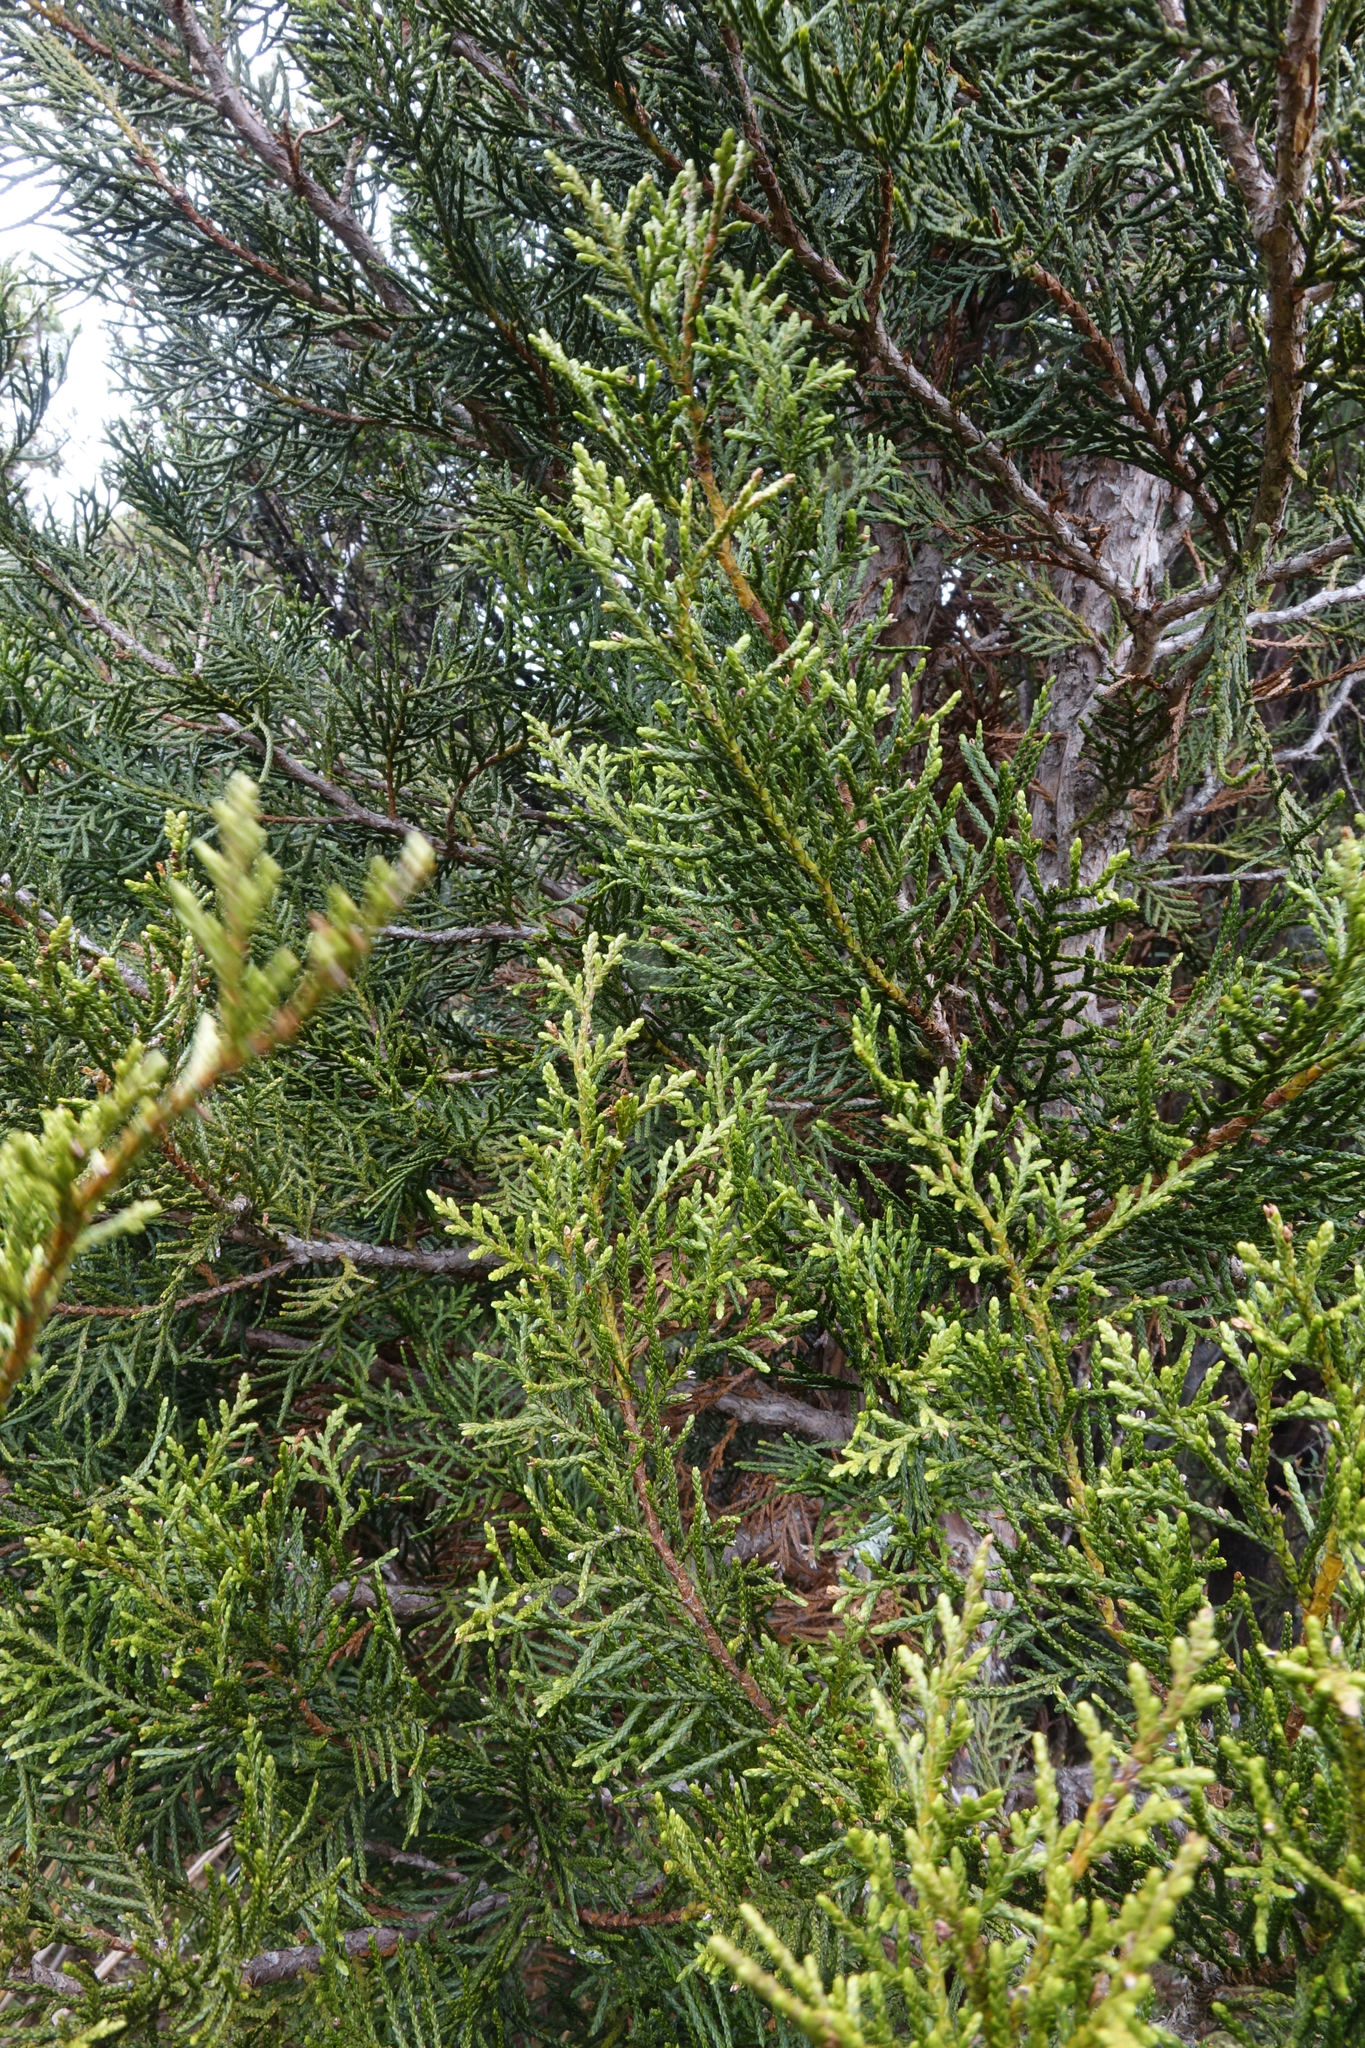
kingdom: Plantae
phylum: Tracheophyta
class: Pinopsida
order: Pinales
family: Cupressaceae
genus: Libocedrus
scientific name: Libocedrus bidwillii
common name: Cedar
